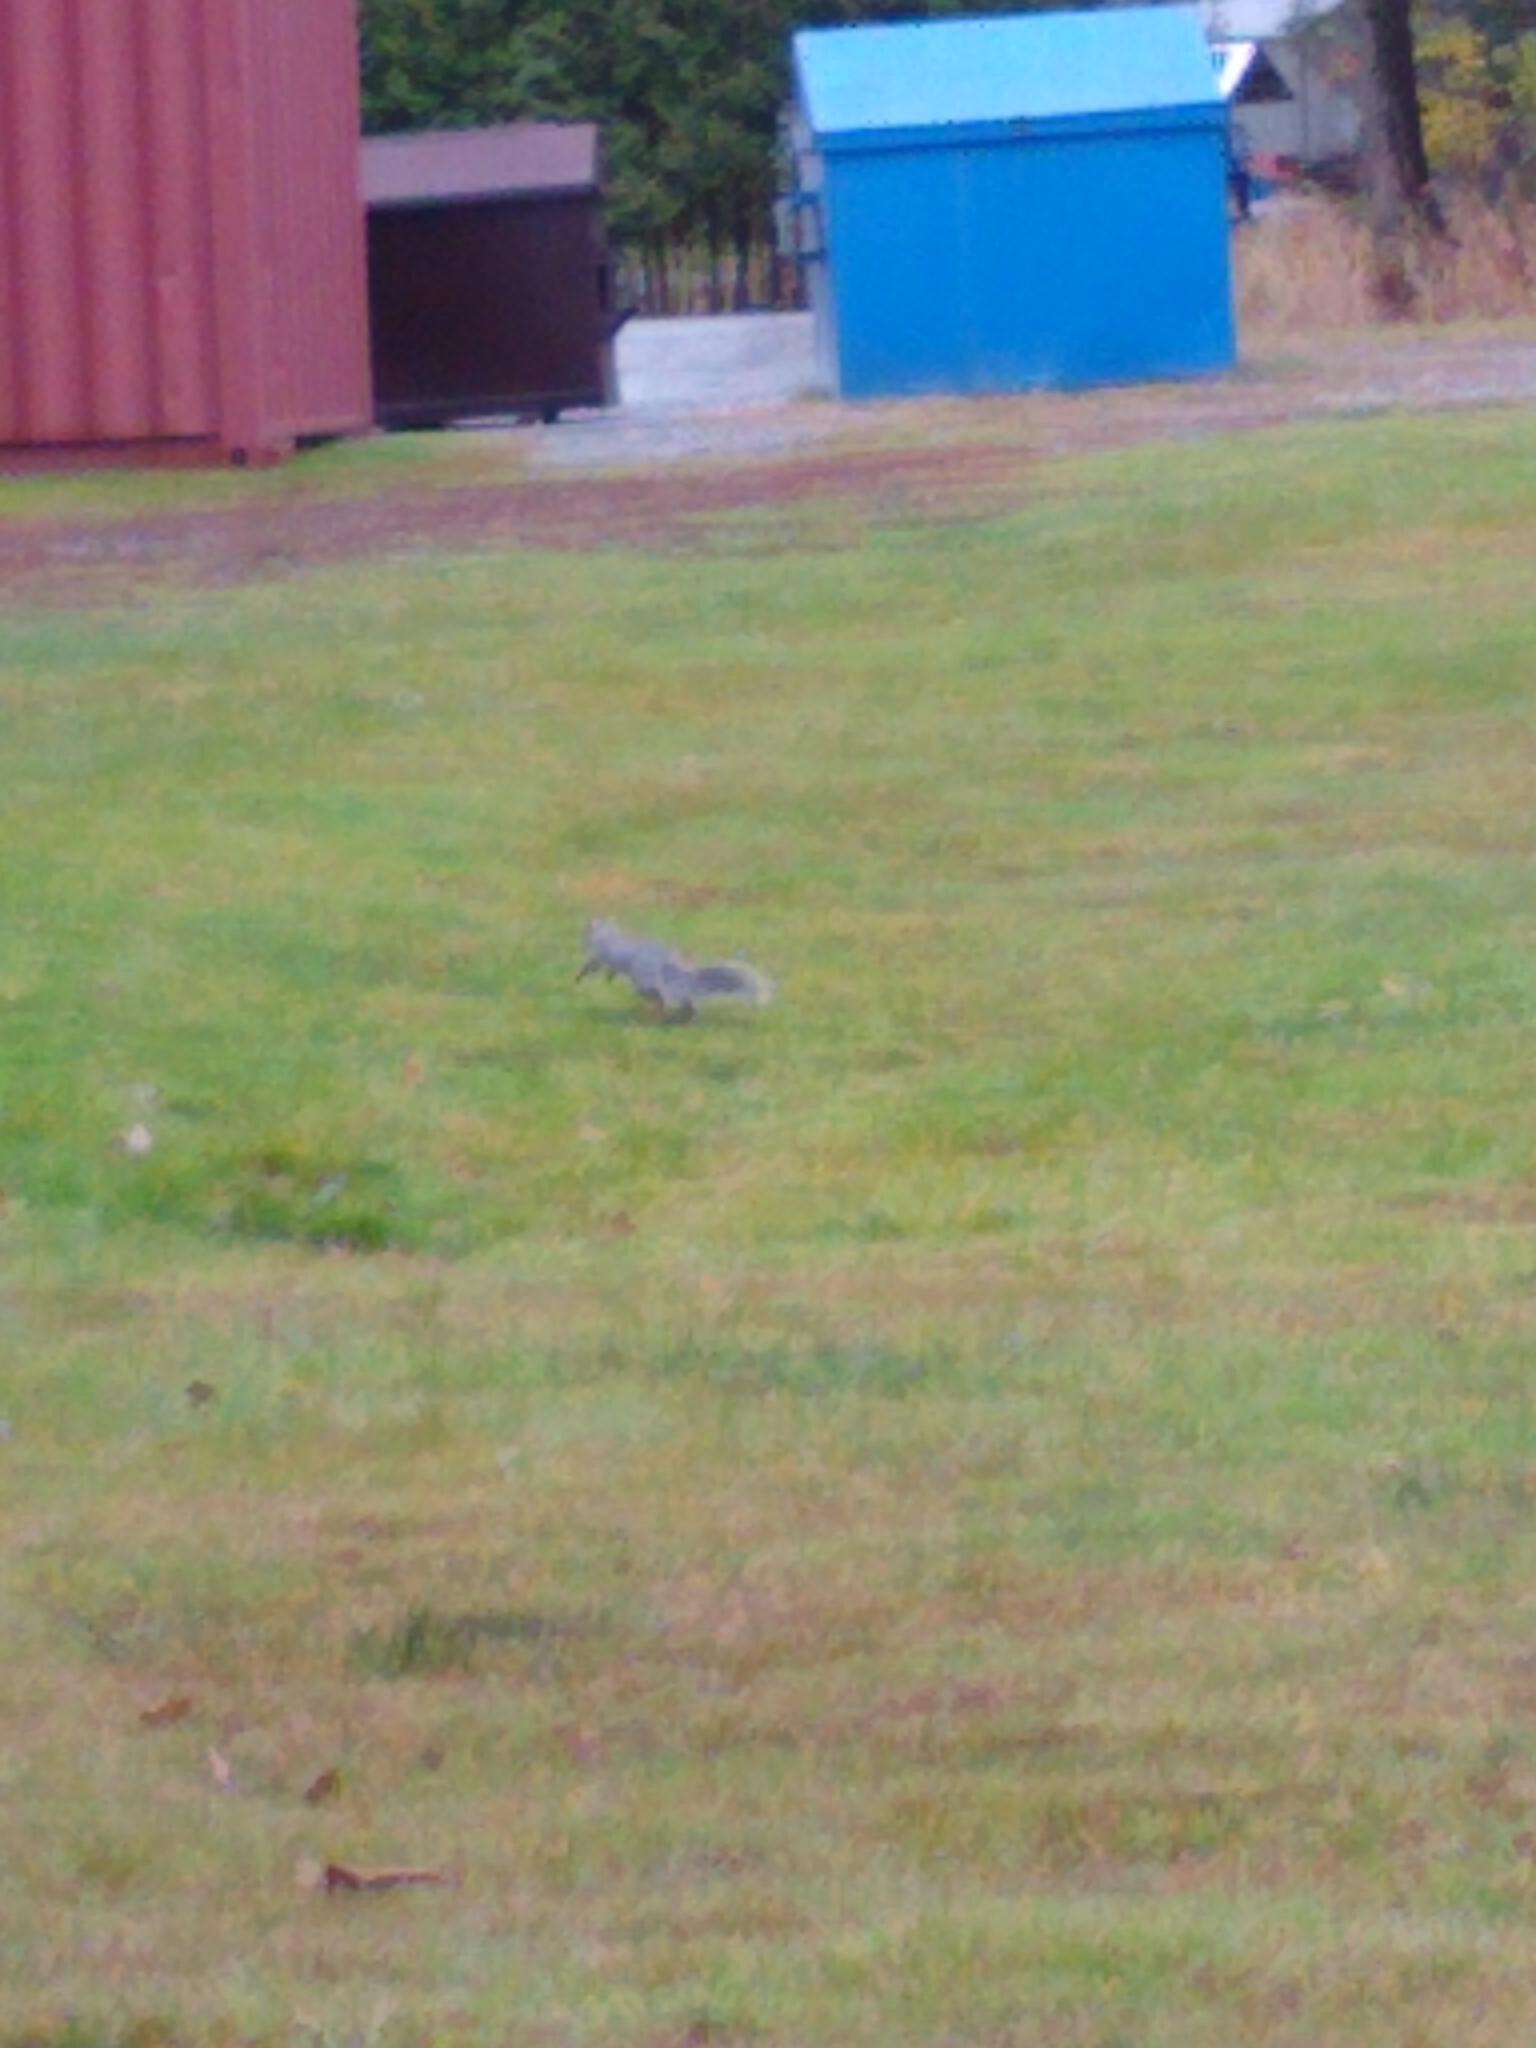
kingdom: Animalia
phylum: Chordata
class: Mammalia
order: Rodentia
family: Sciuridae
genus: Sciurus
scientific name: Sciurus carolinensis
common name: Eastern gray squirrel
